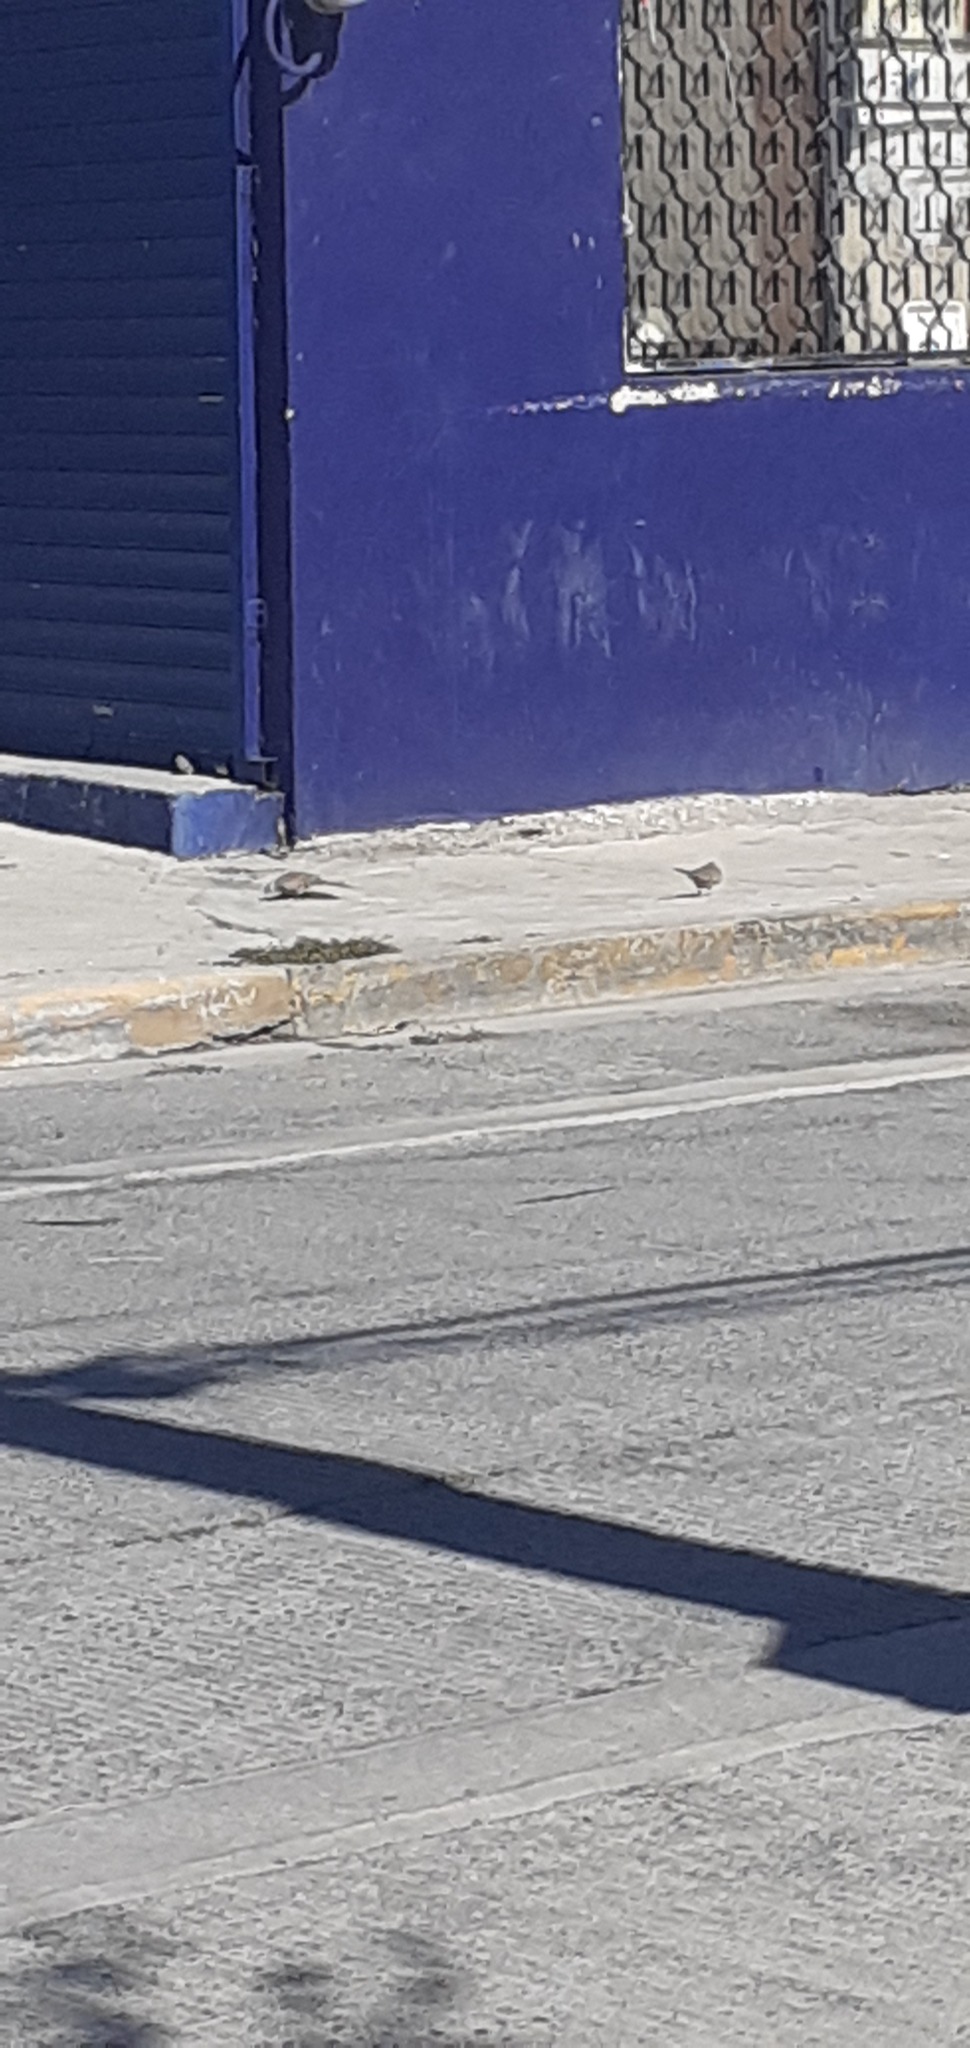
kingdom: Animalia
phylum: Chordata
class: Aves
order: Columbiformes
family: Columbidae
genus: Columbina
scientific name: Columbina inca
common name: Inca dove
